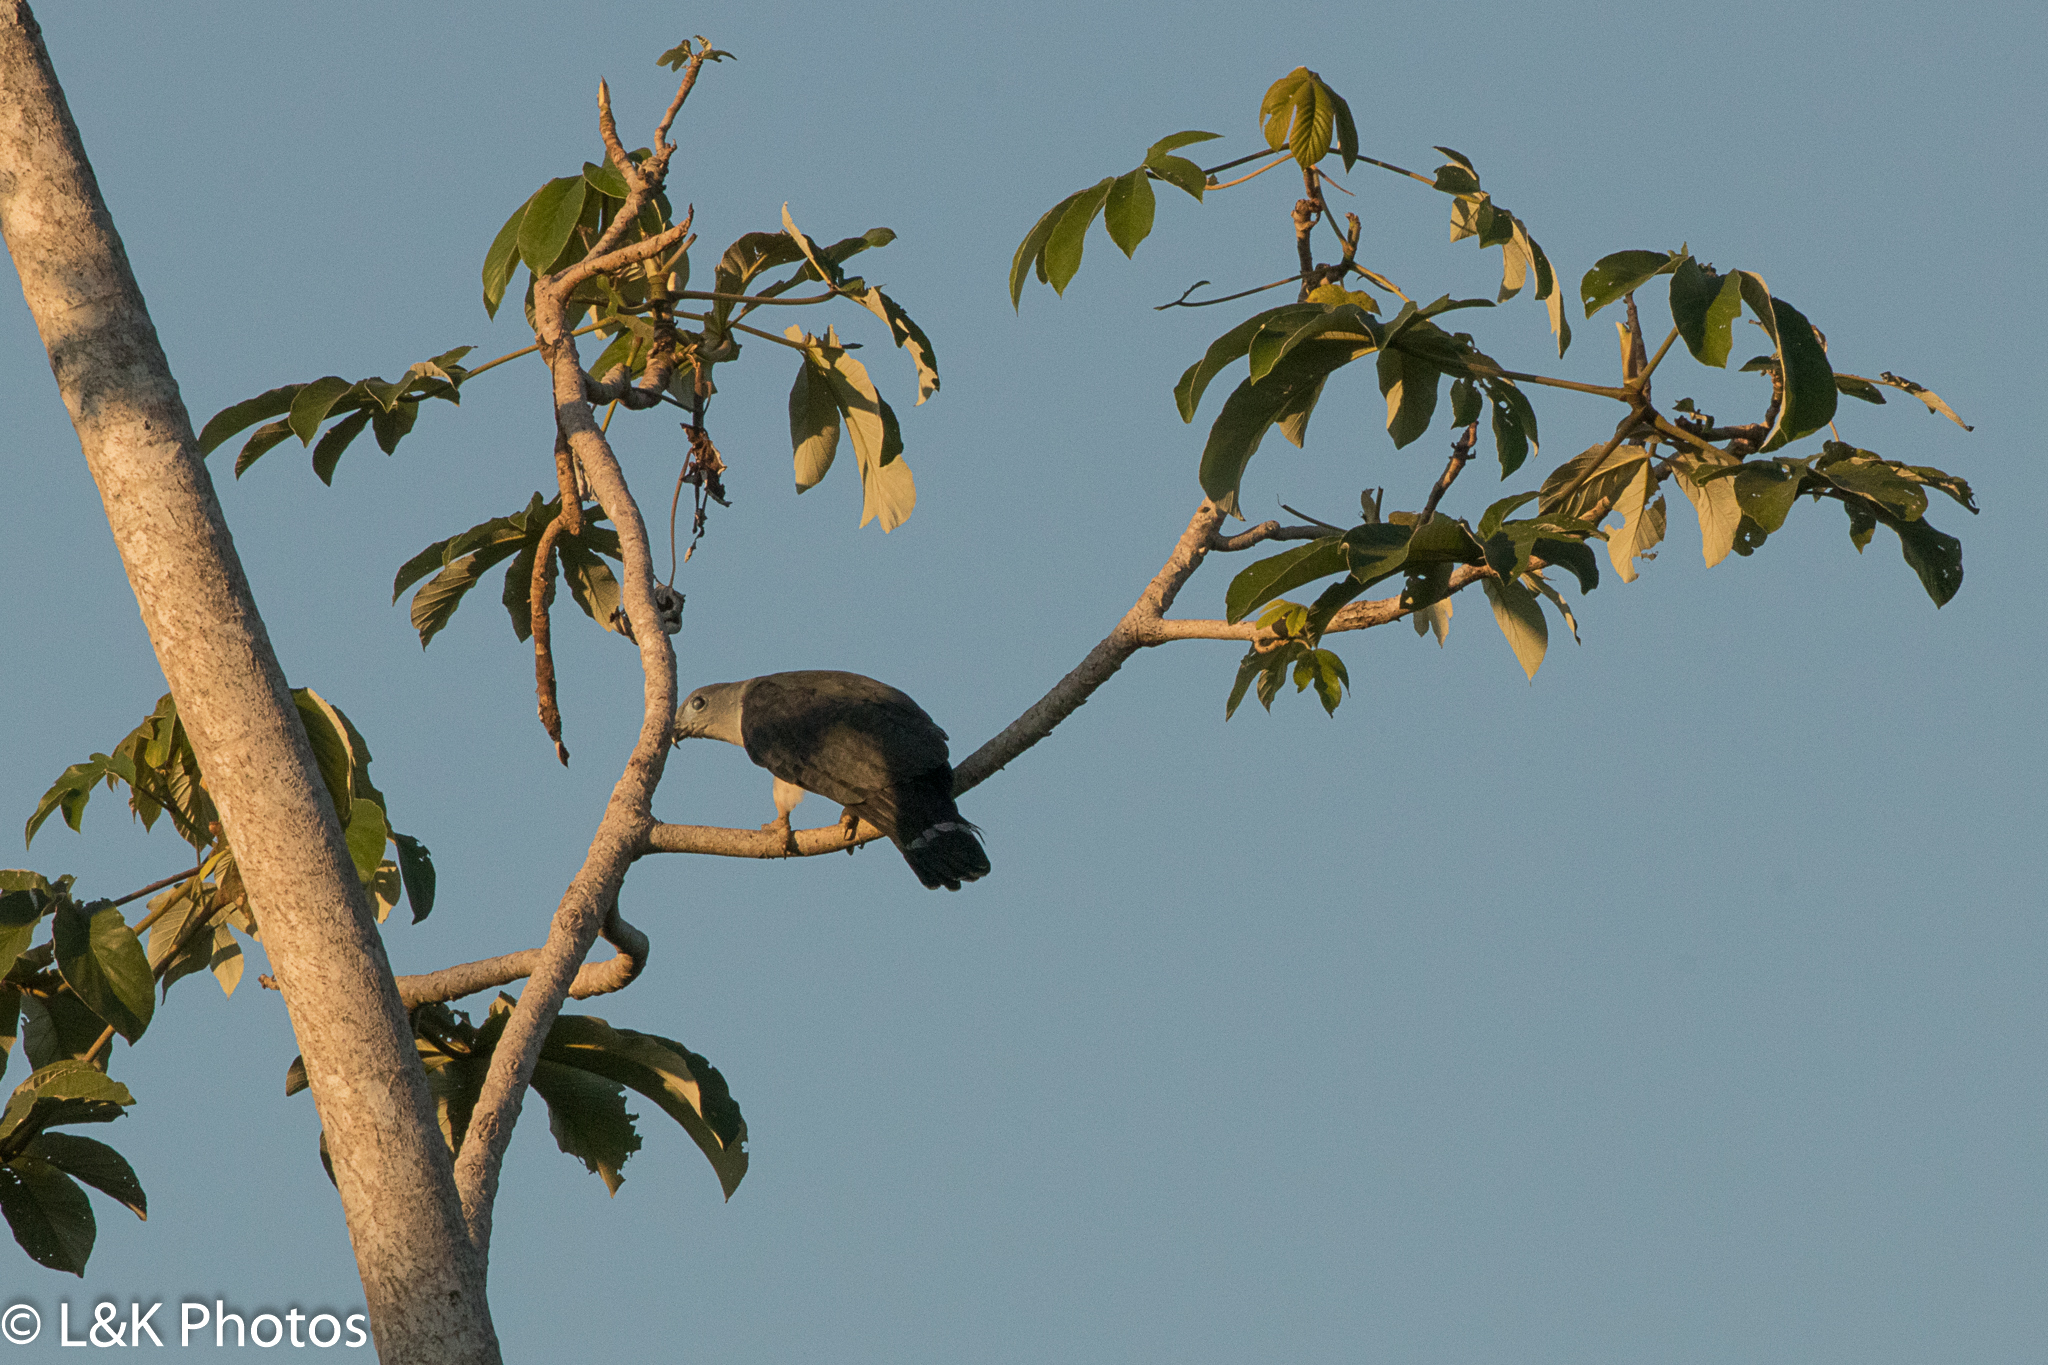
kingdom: Animalia
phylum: Chordata
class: Aves
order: Accipitriformes
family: Accipitridae
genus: Leptodon
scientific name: Leptodon cayanensis
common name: Gray-headed kite
